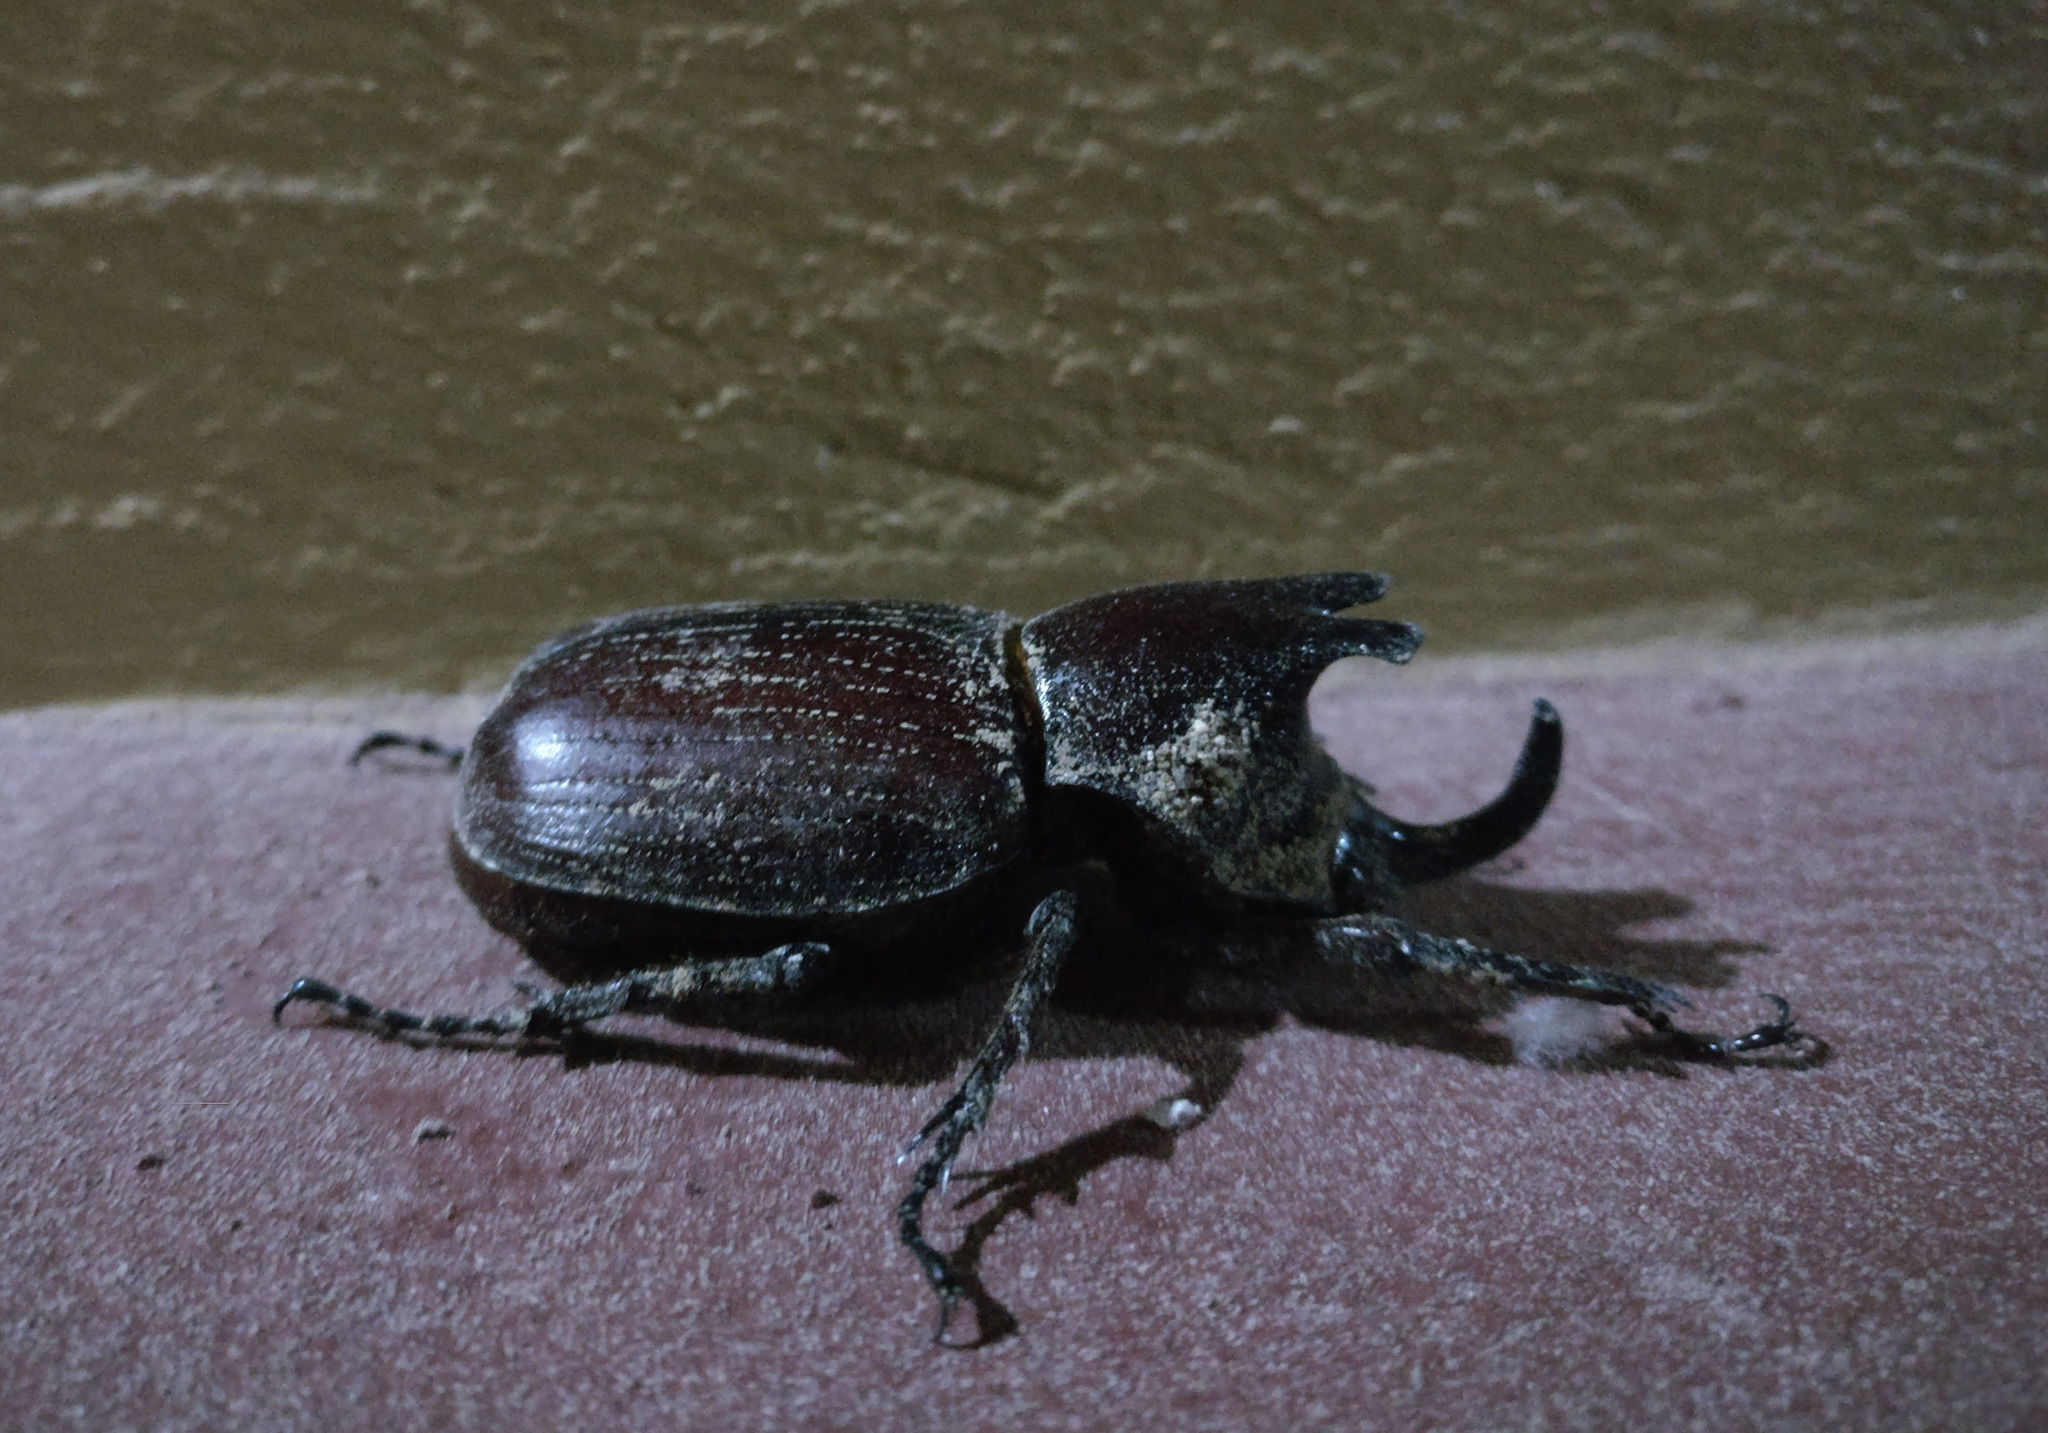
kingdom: Animalia
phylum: Arthropoda
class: Insecta
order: Coleoptera
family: Scarabaeidae
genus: Coelosis
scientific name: Coelosis biloba
